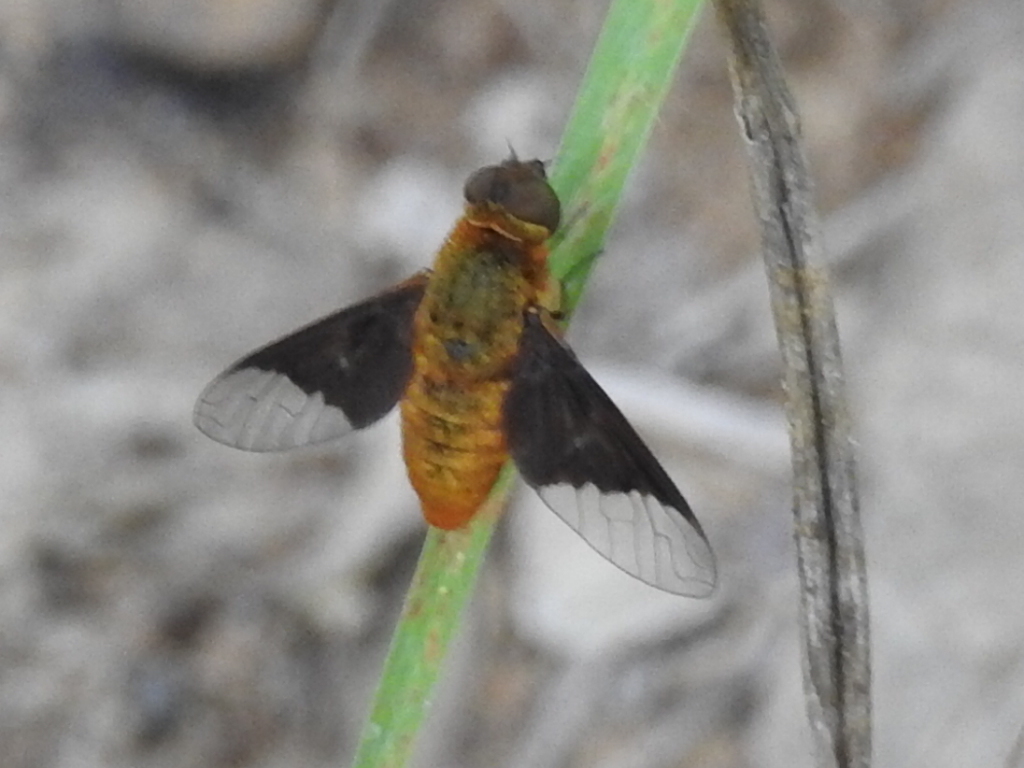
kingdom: Animalia
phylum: Arthropoda
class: Insecta
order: Diptera
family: Bombyliidae
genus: Chrysanthrax
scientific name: Chrysanthrax cypris
